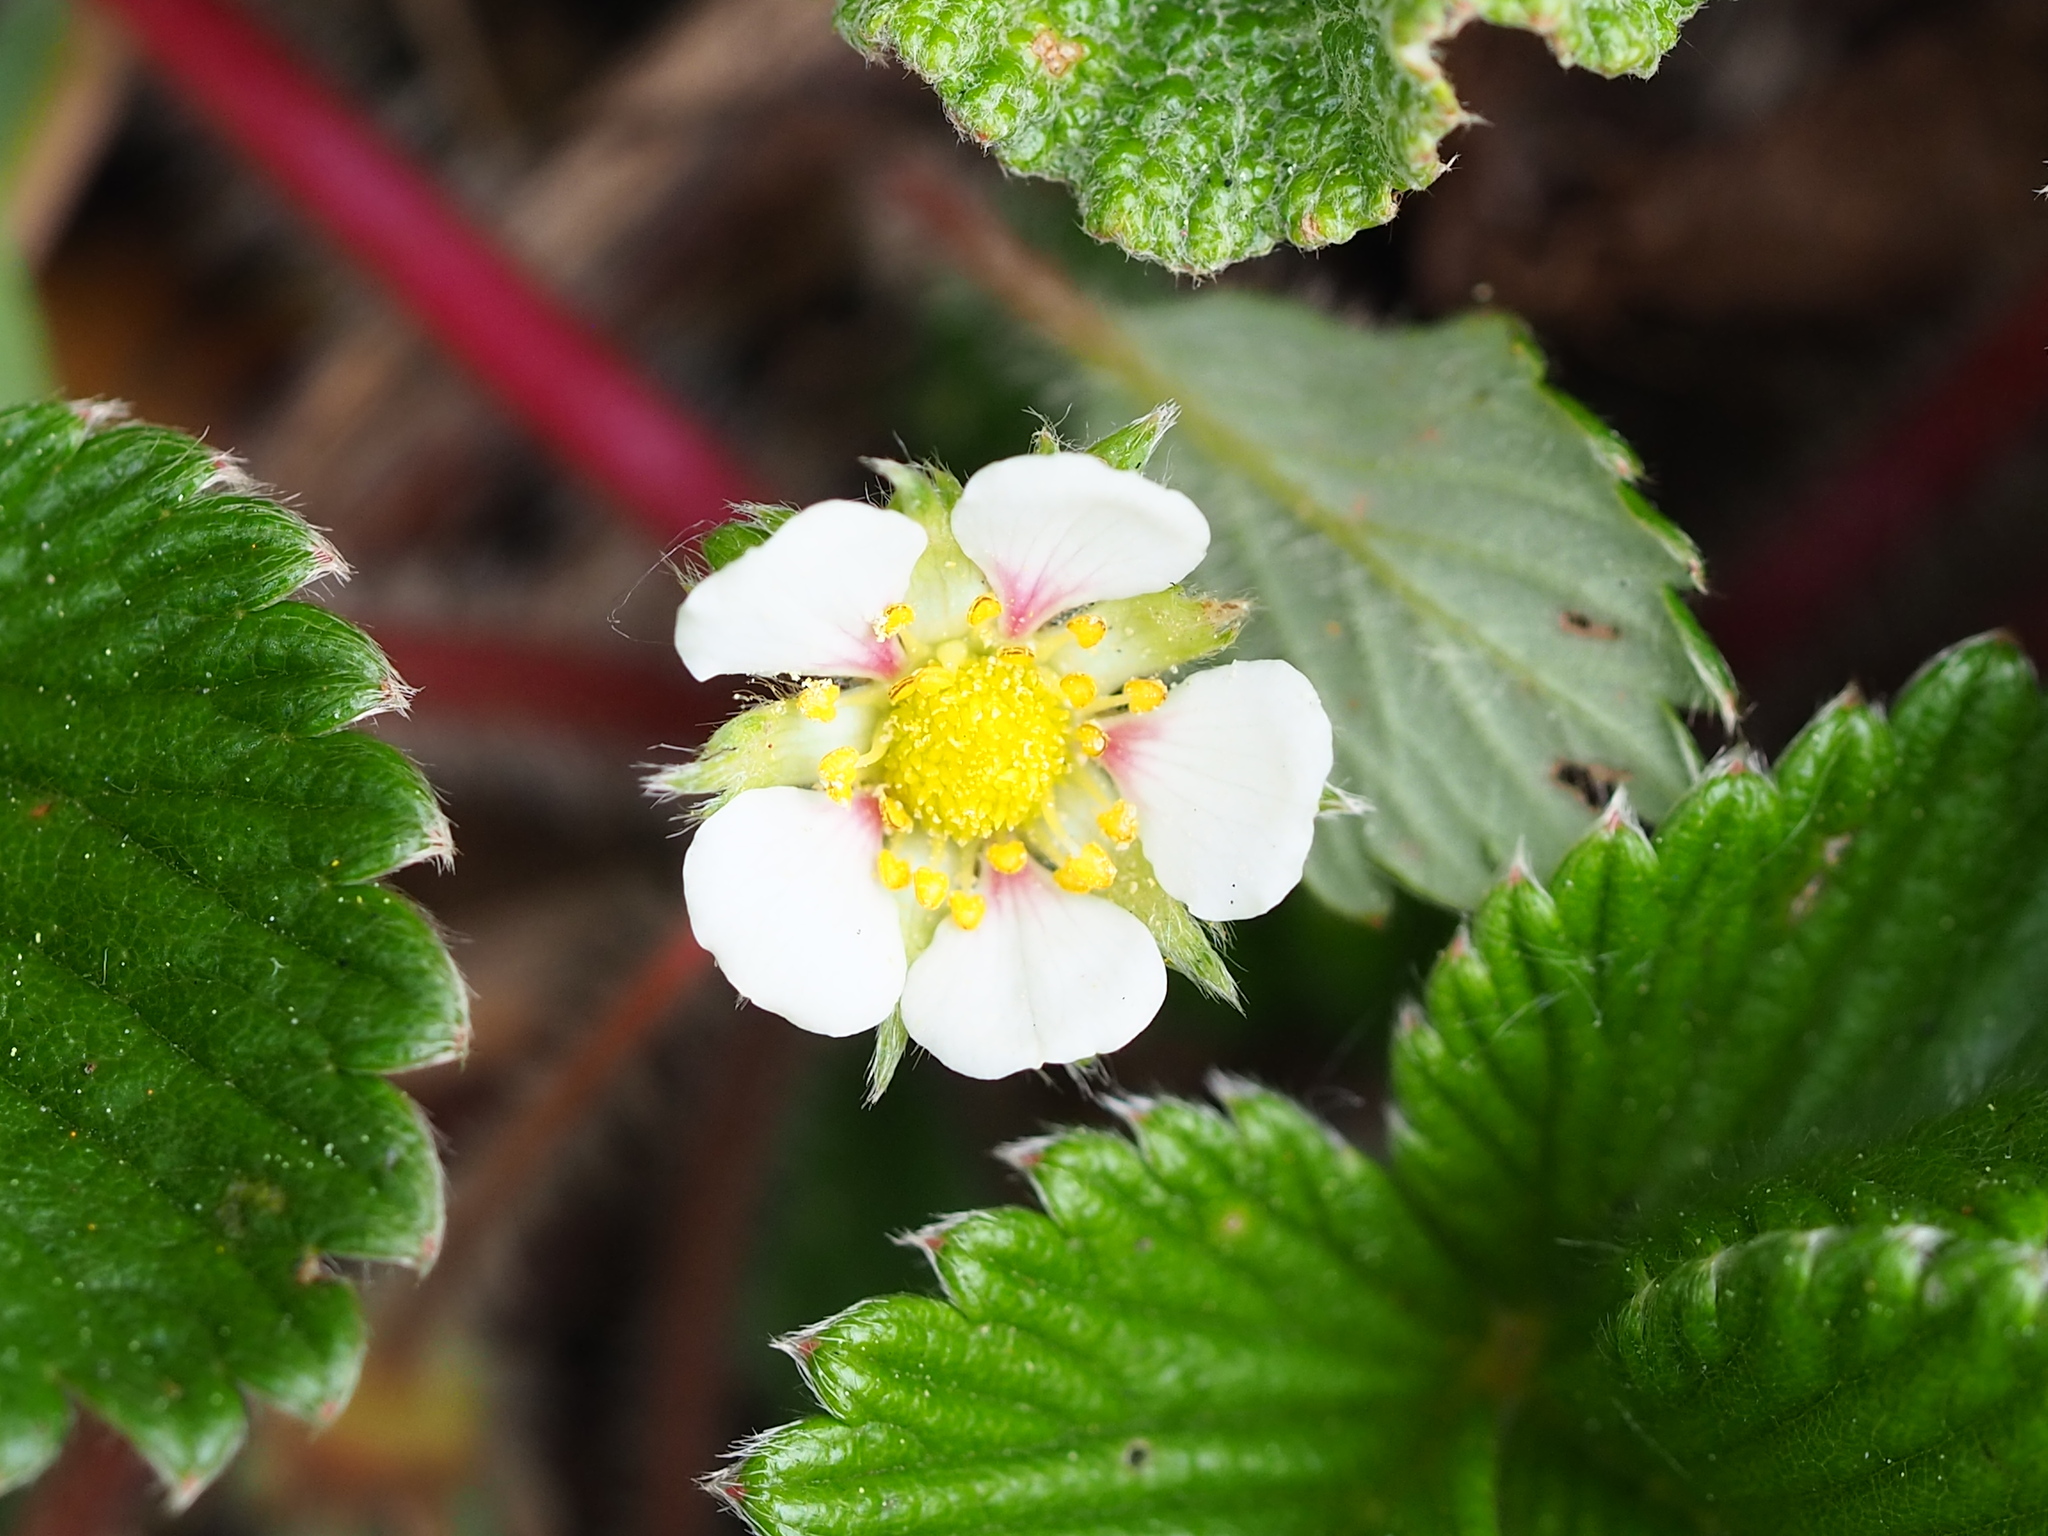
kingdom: Plantae
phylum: Tracheophyta
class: Magnoliopsida
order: Rosales
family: Rosaceae
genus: Fragaria
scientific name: Fragaria nilgerrensis
